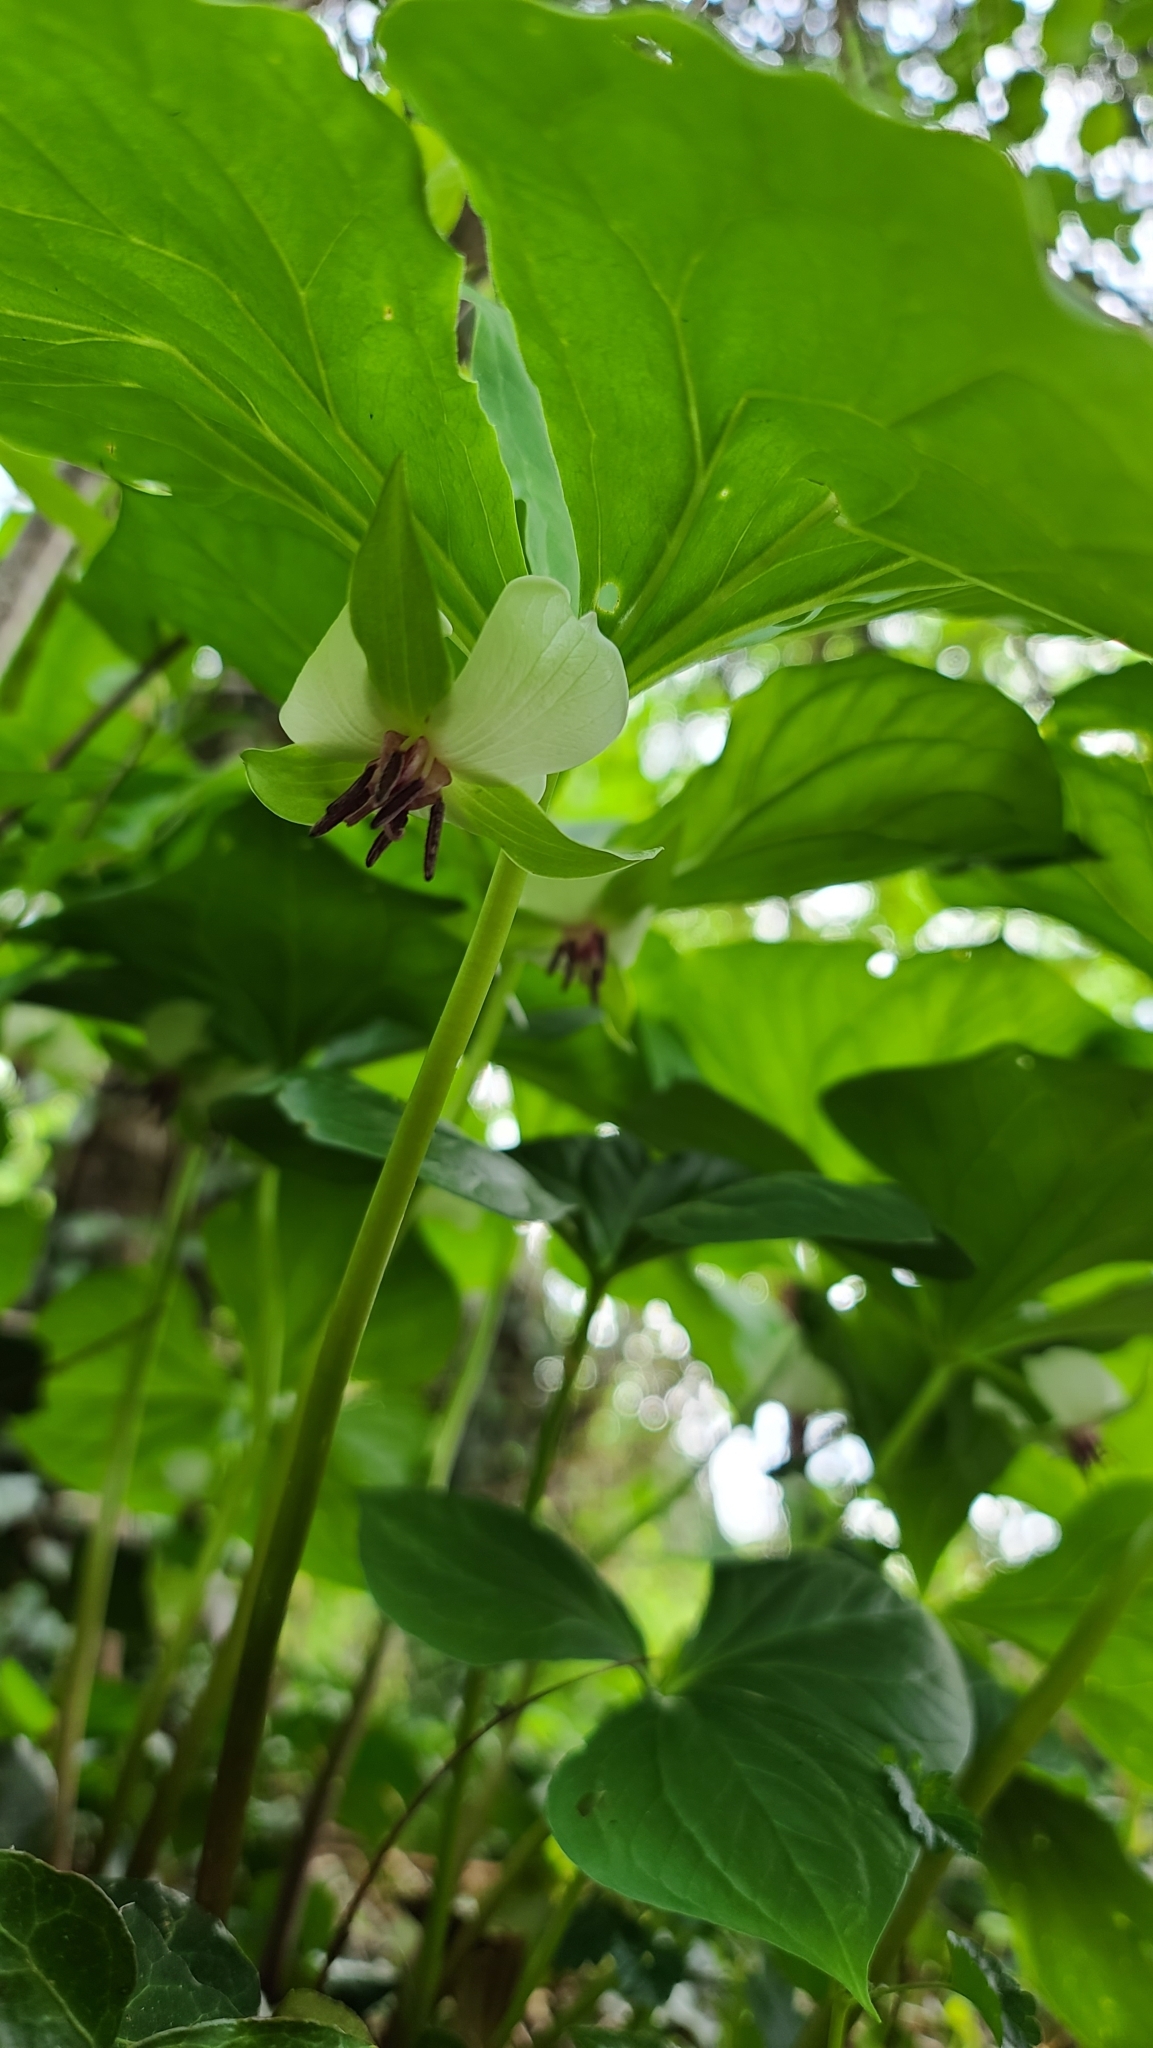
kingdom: Plantae
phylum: Tracheophyta
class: Liliopsida
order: Liliales
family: Melanthiaceae
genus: Trillium
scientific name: Trillium rugelii
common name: Ill-scented trillium
